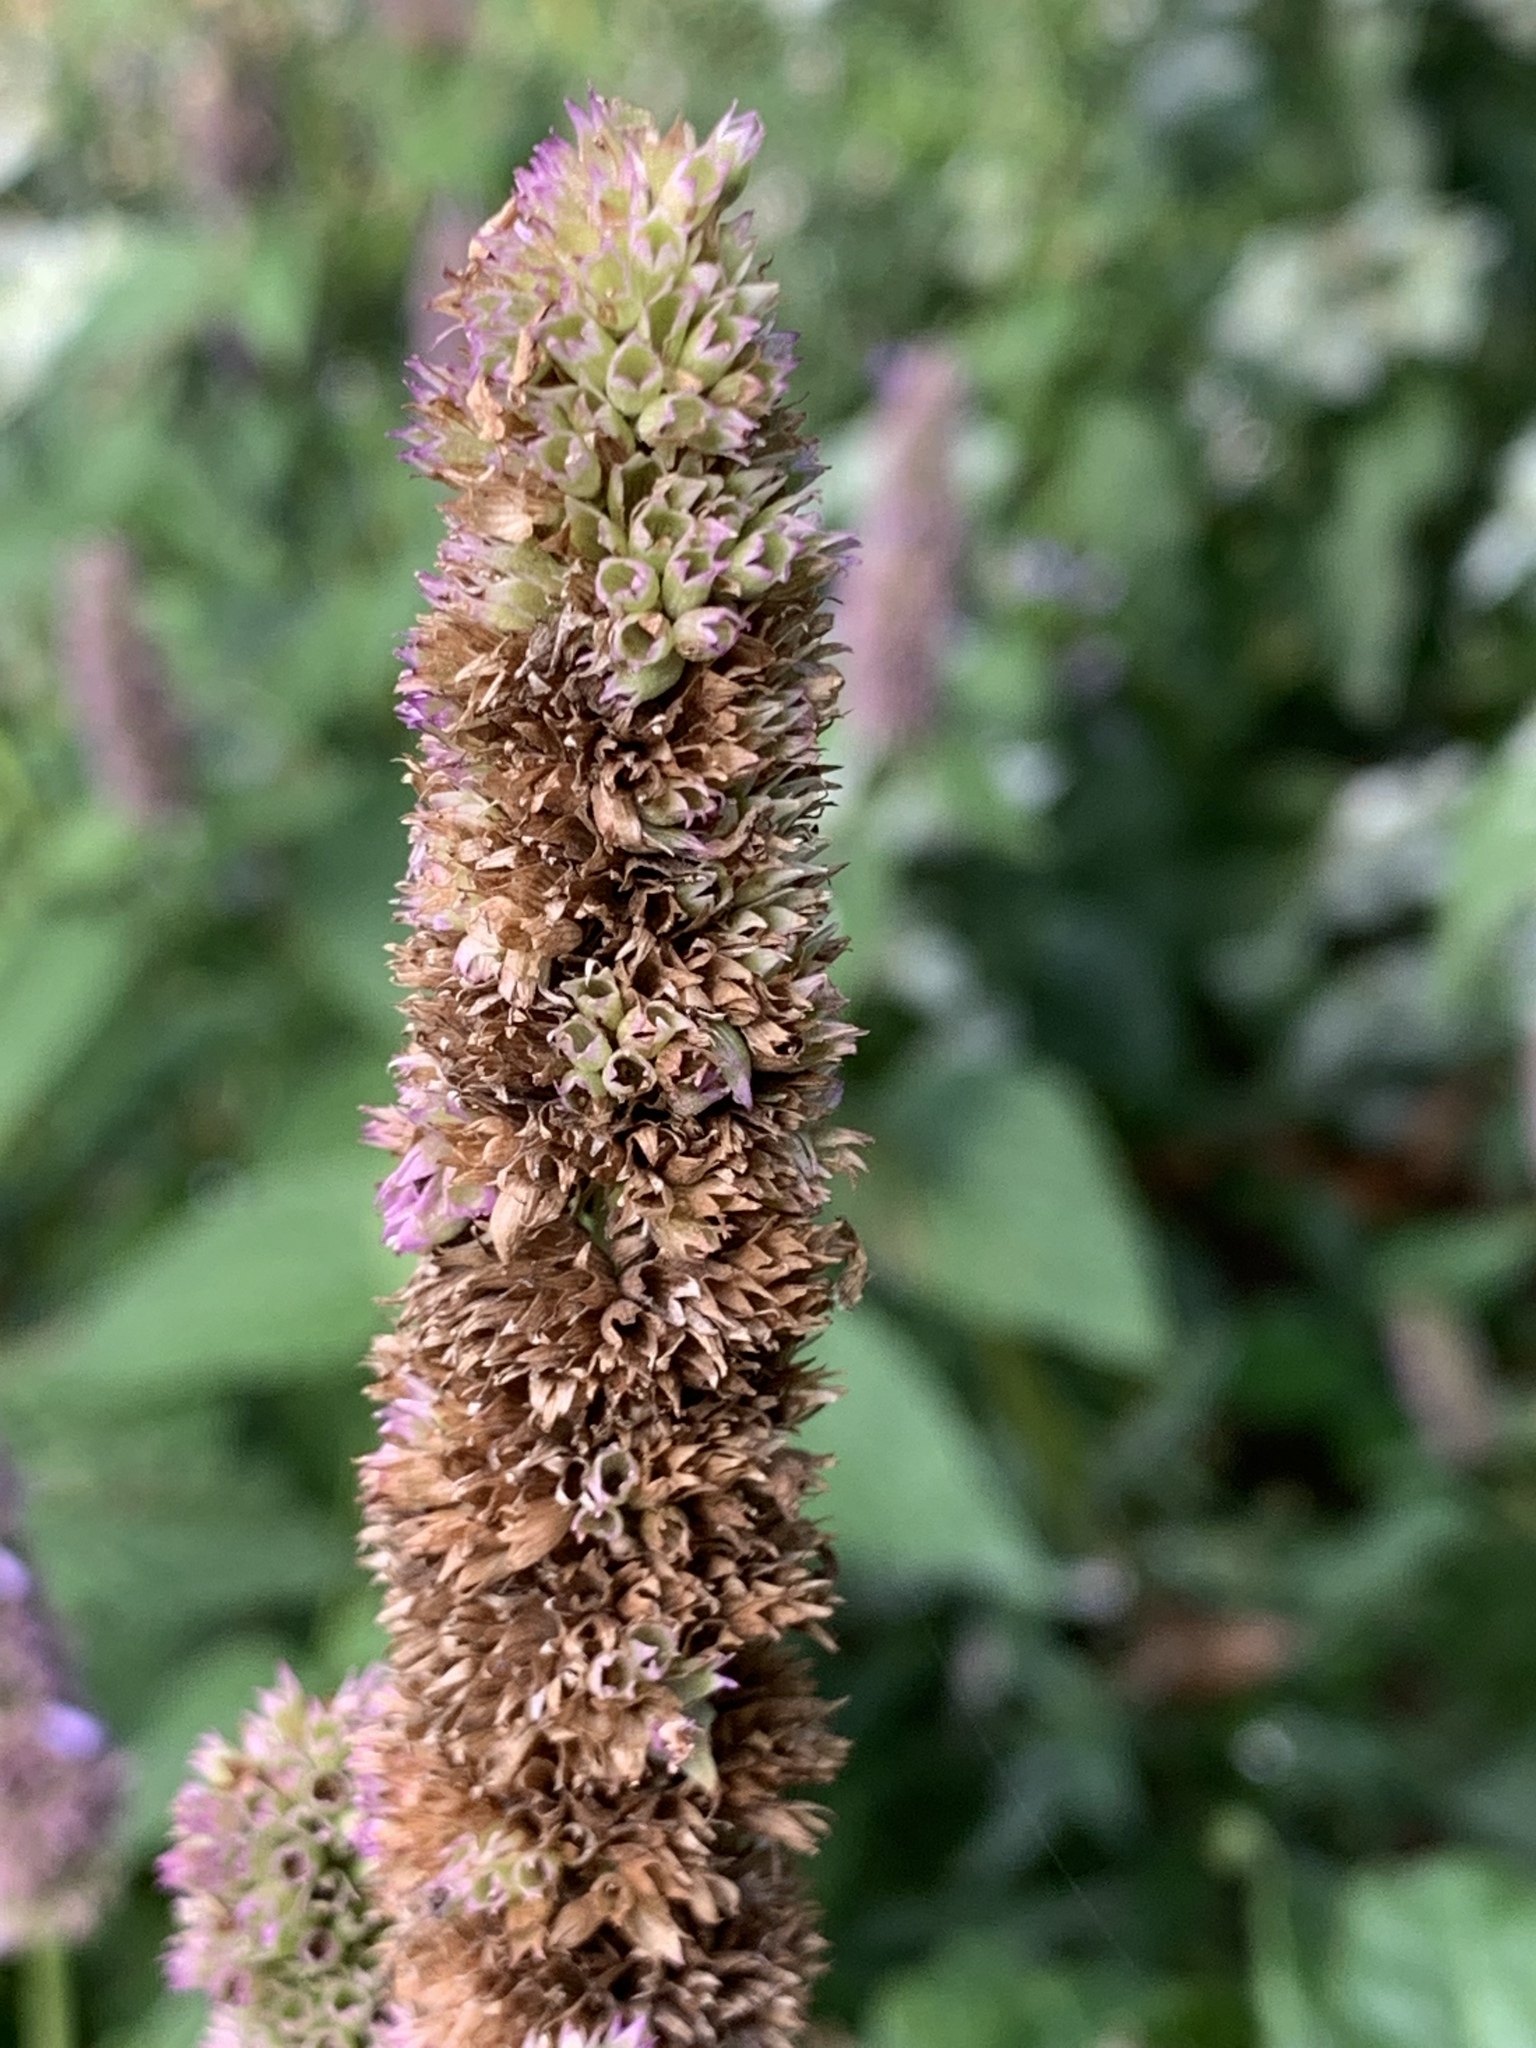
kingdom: Plantae
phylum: Tracheophyta
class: Magnoliopsida
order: Lamiales
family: Lamiaceae
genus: Agastache
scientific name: Agastache foeniculum
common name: Anise hyssop
